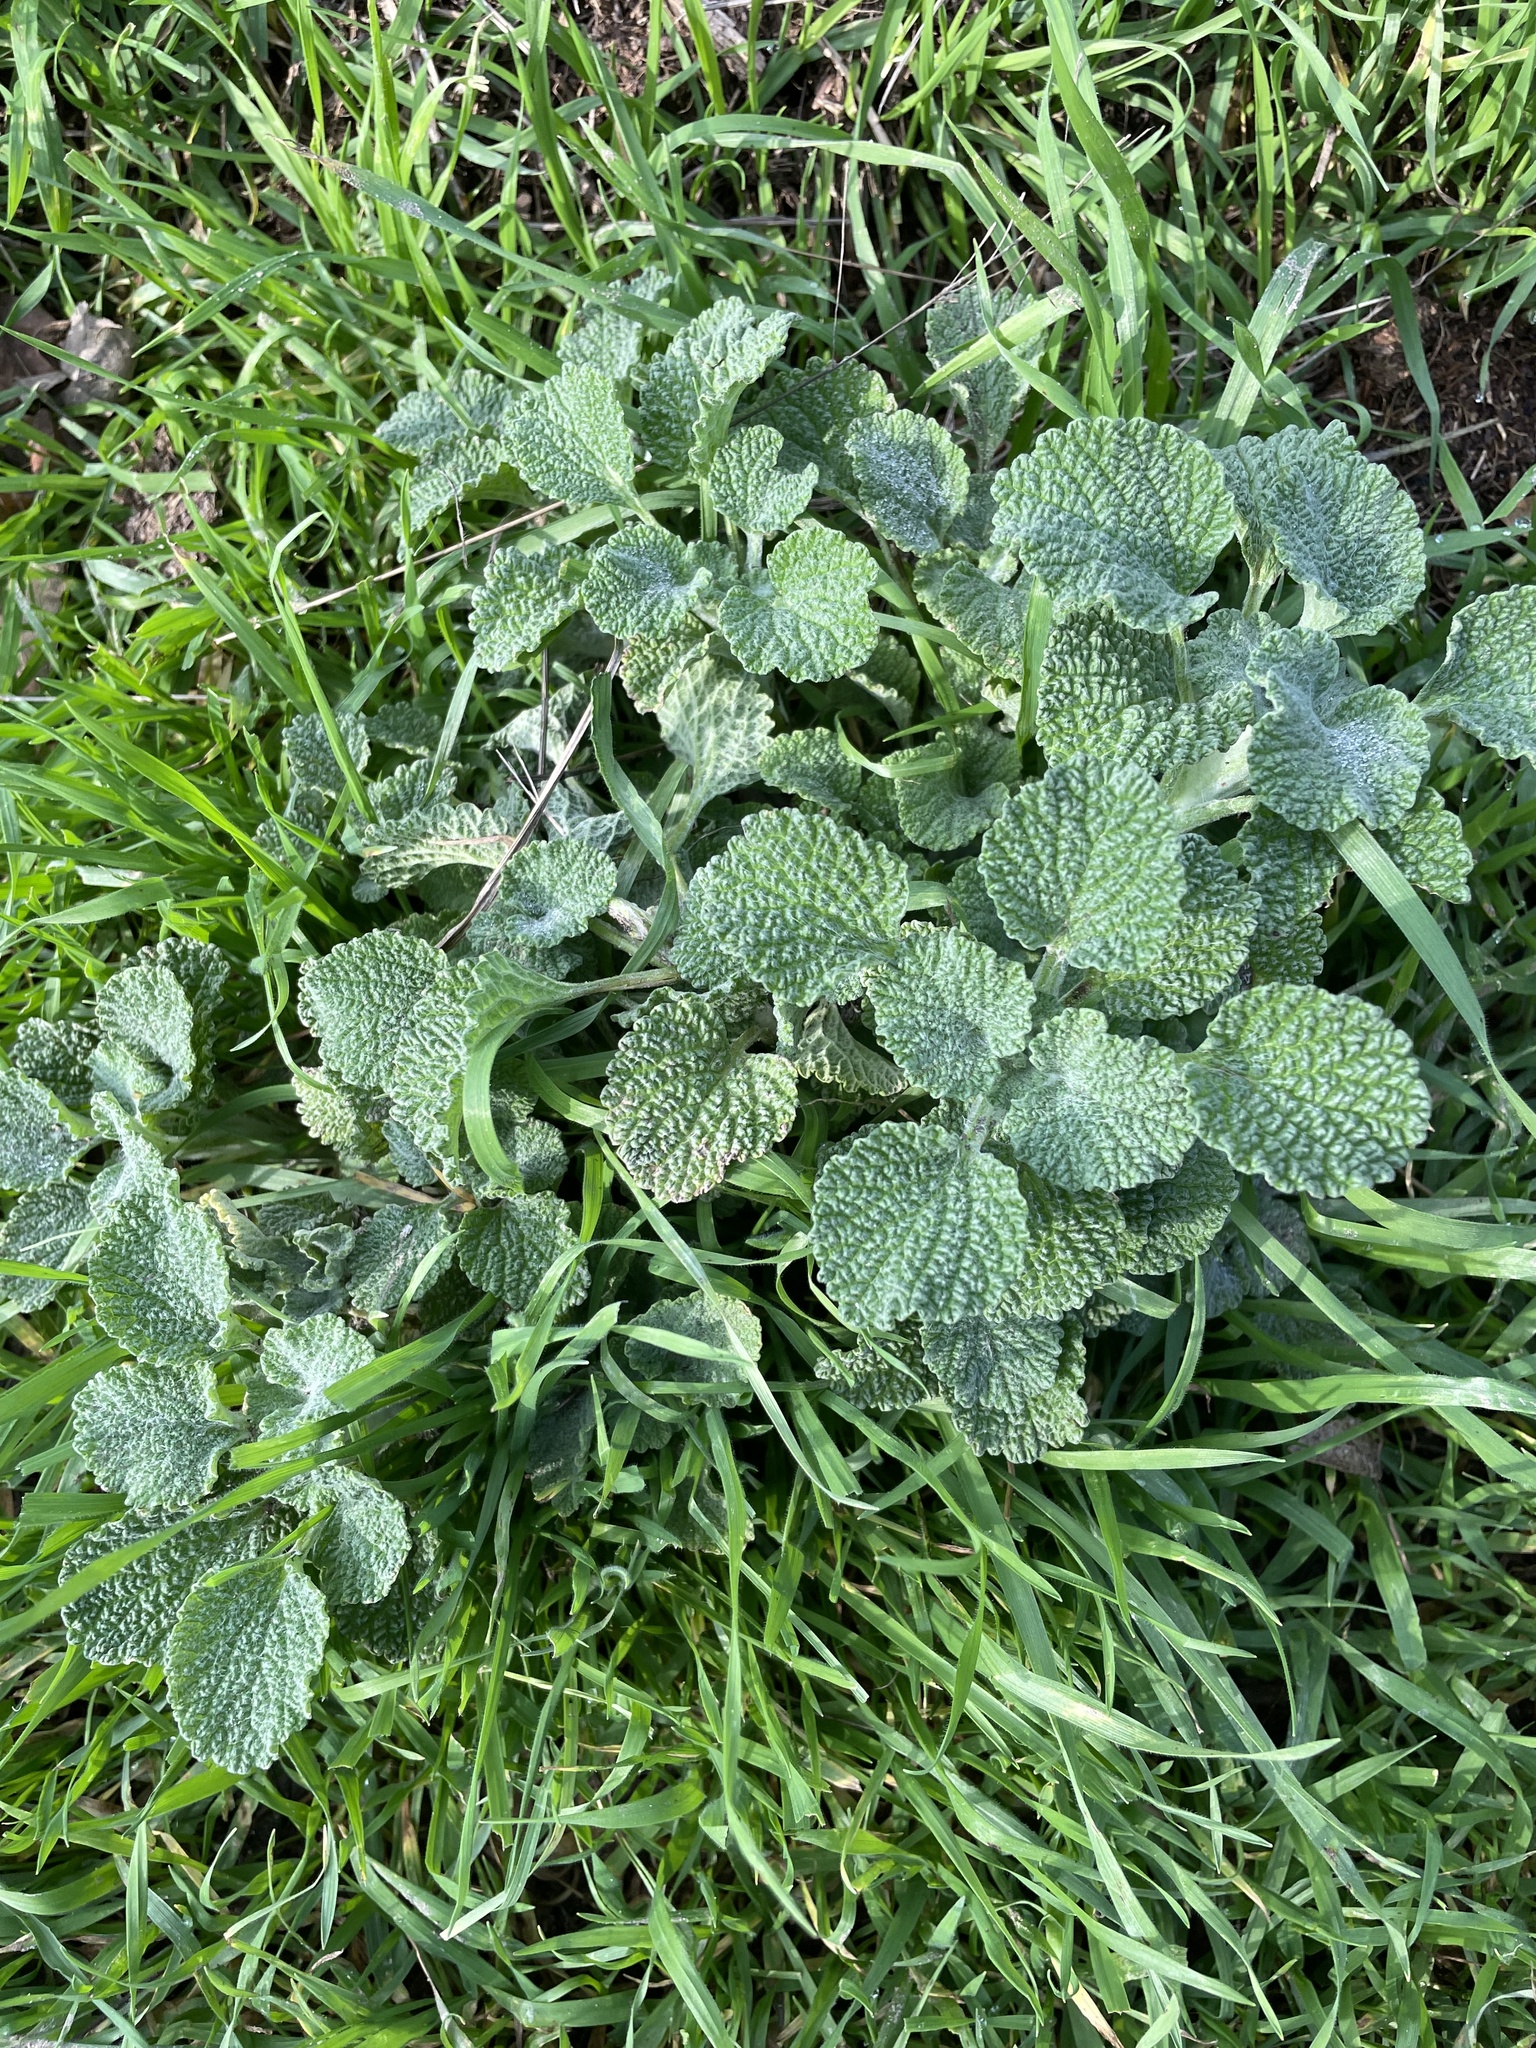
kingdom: Plantae
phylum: Tracheophyta
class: Magnoliopsida
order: Lamiales
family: Lamiaceae
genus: Marrubium
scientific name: Marrubium vulgare
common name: Horehound
